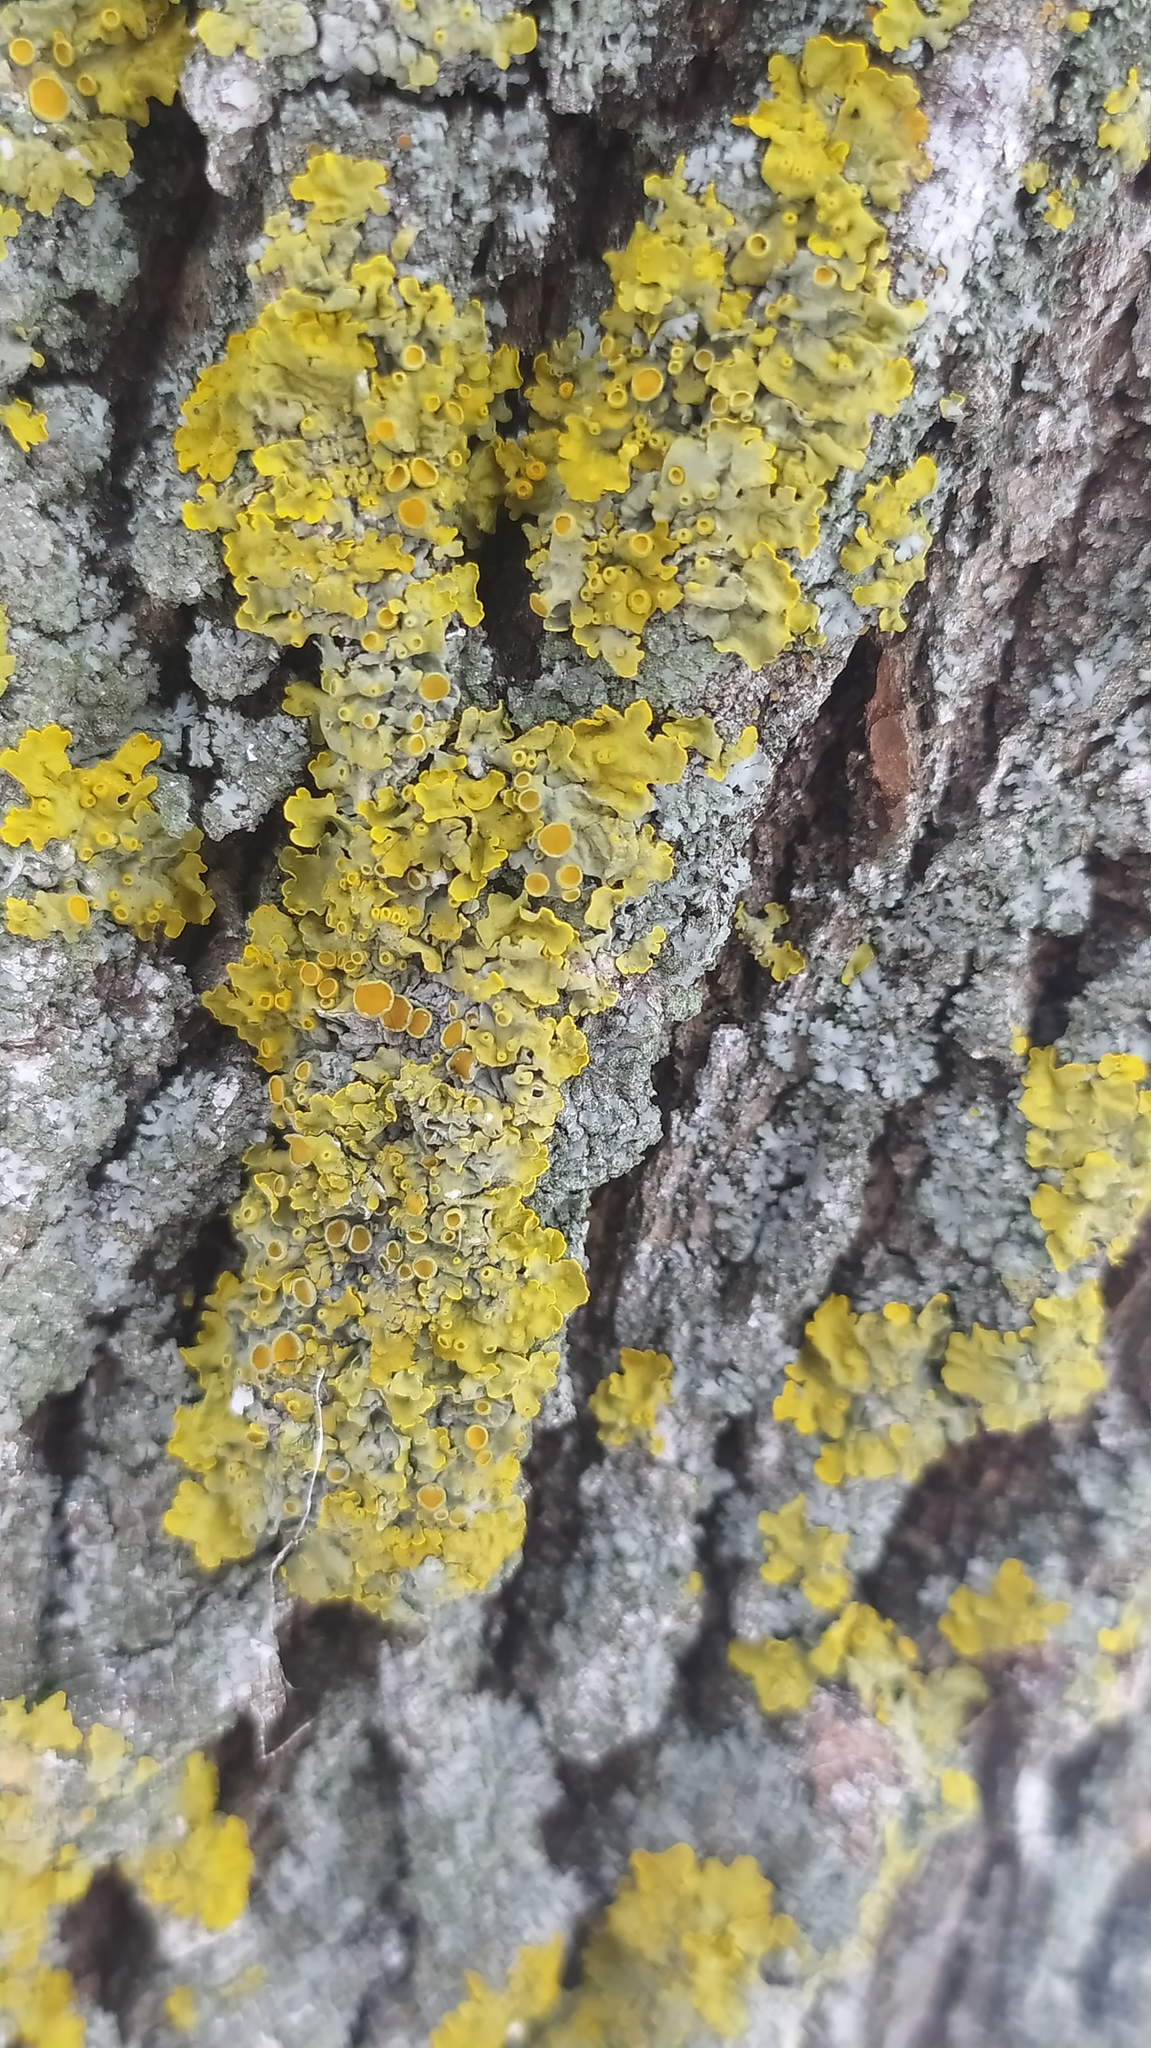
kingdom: Fungi
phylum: Ascomycota
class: Lecanoromycetes
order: Teloschistales
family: Teloschistaceae
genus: Xanthoria
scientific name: Xanthoria parietina
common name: Common orange lichen
